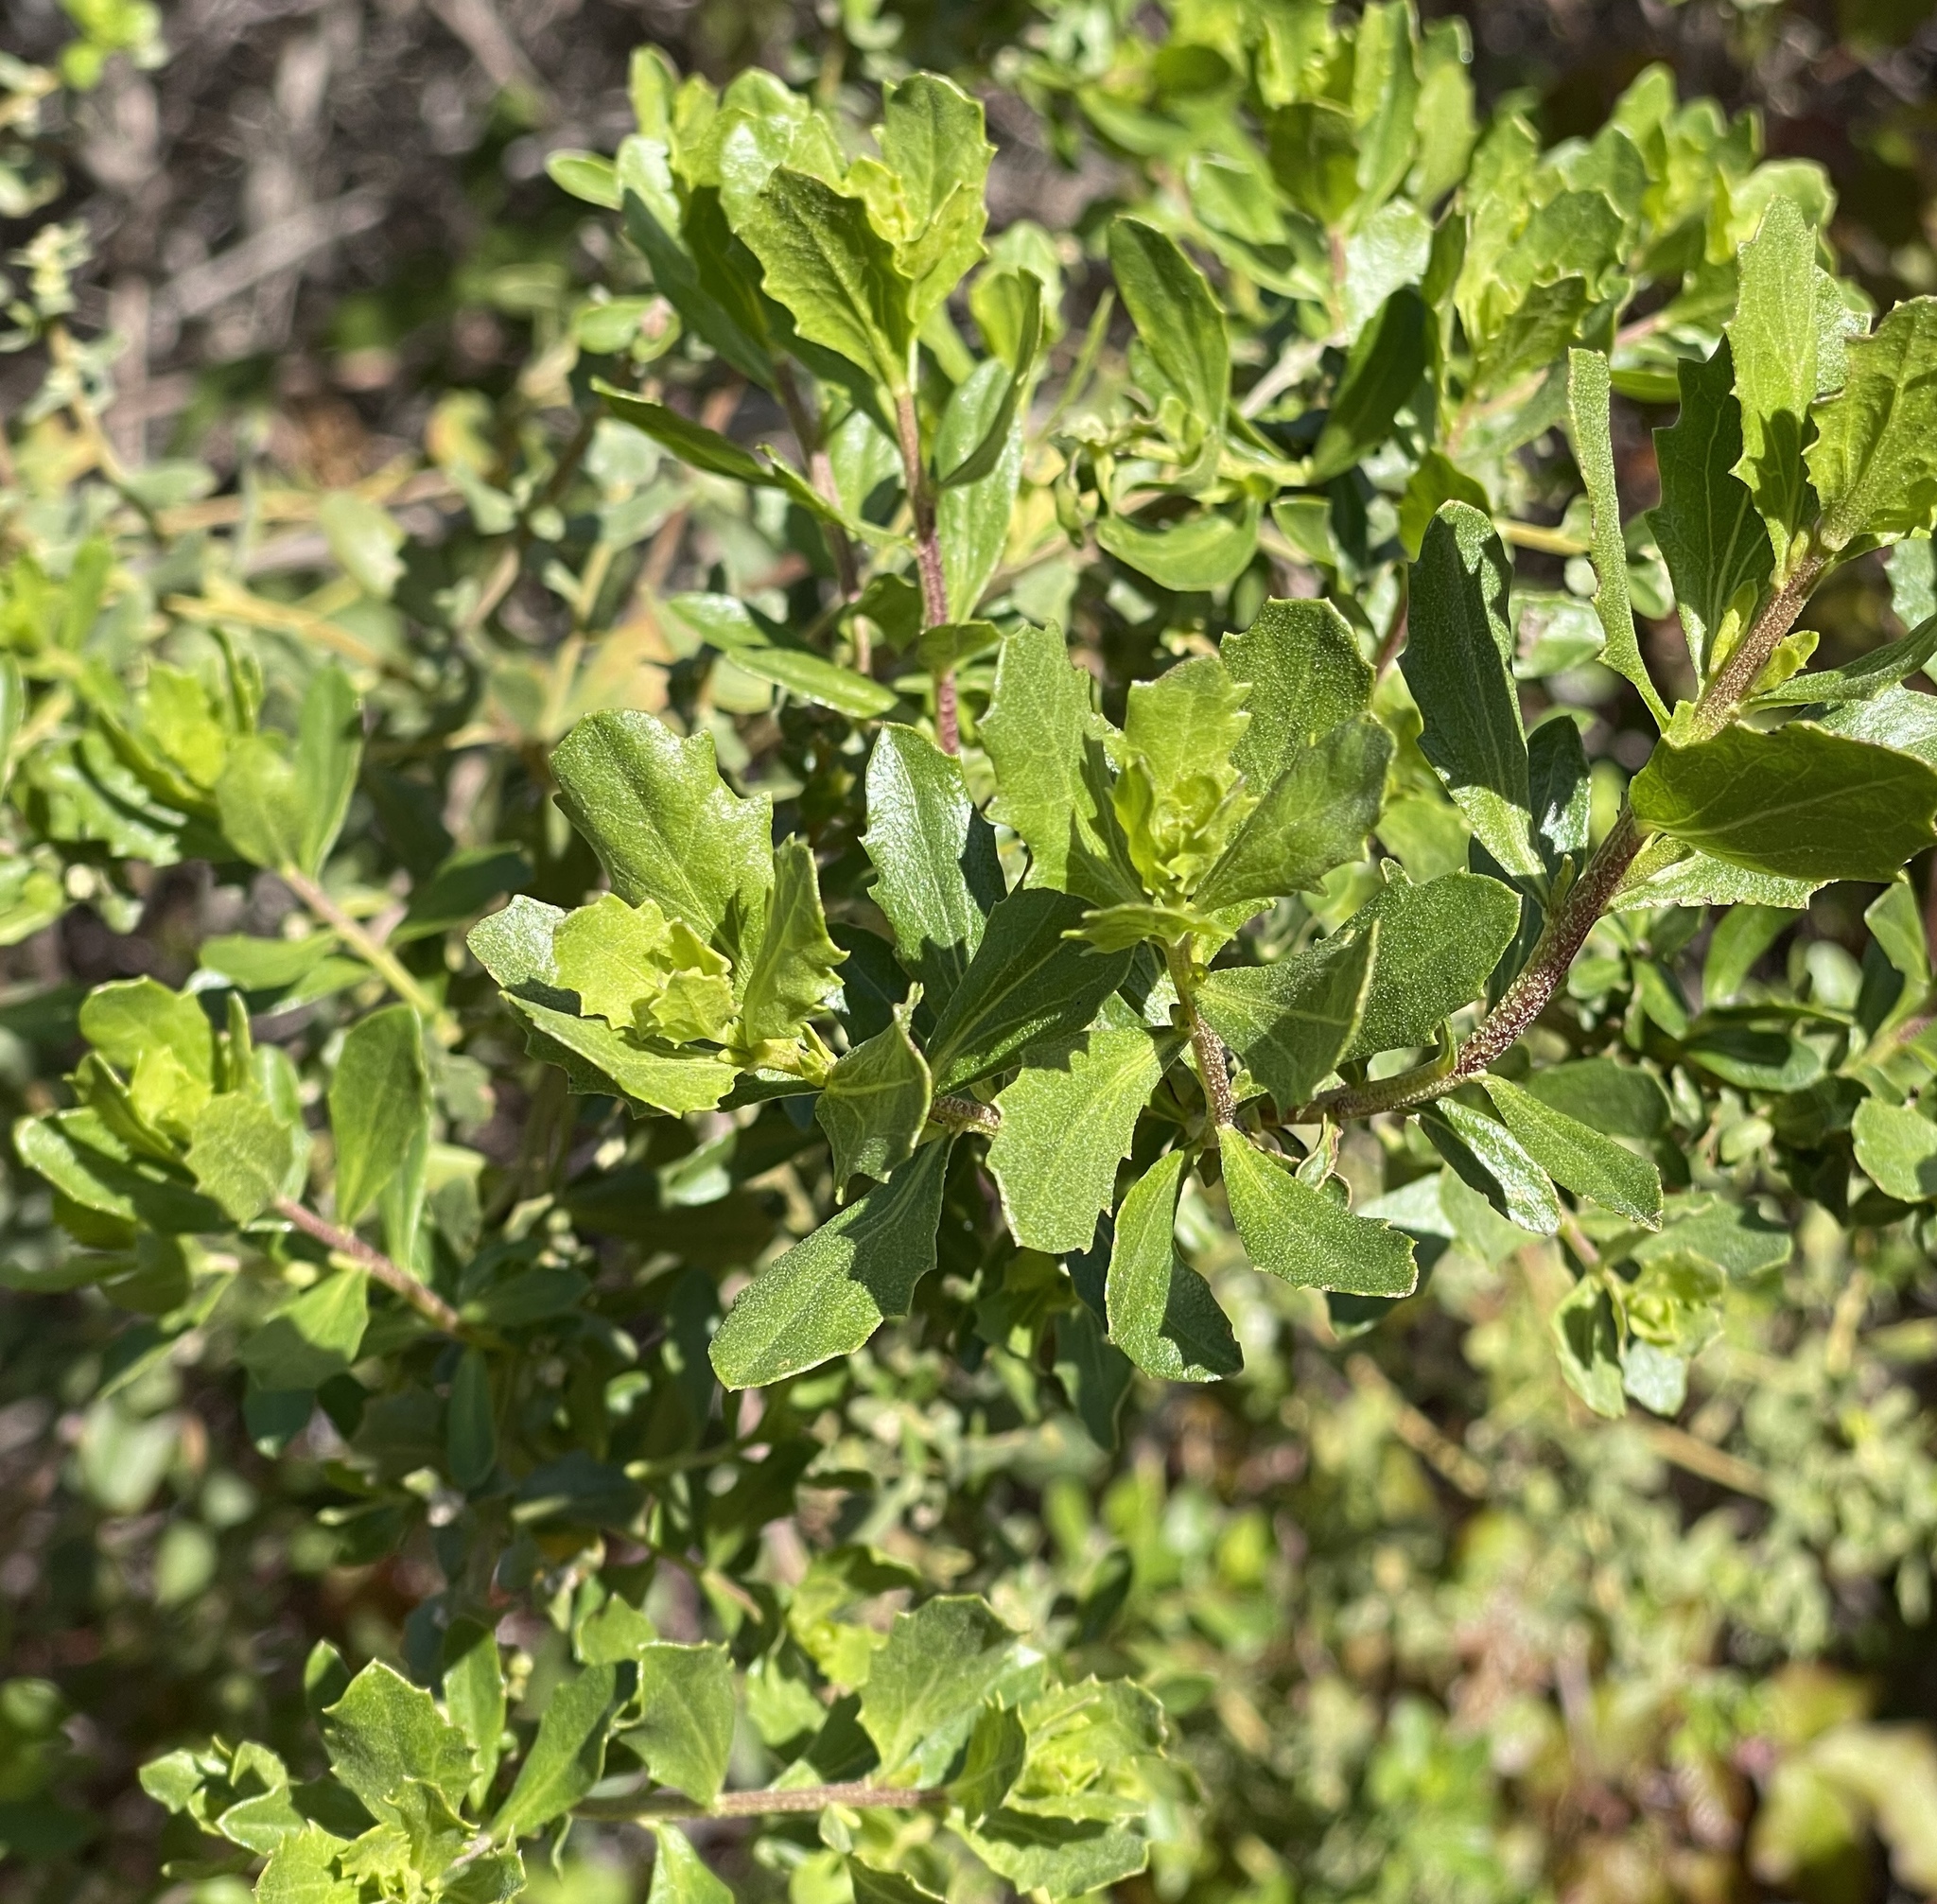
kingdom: Plantae
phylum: Tracheophyta
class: Magnoliopsida
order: Asterales
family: Asteraceae
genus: Baccharis
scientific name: Baccharis pilularis
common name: Coyotebrush
